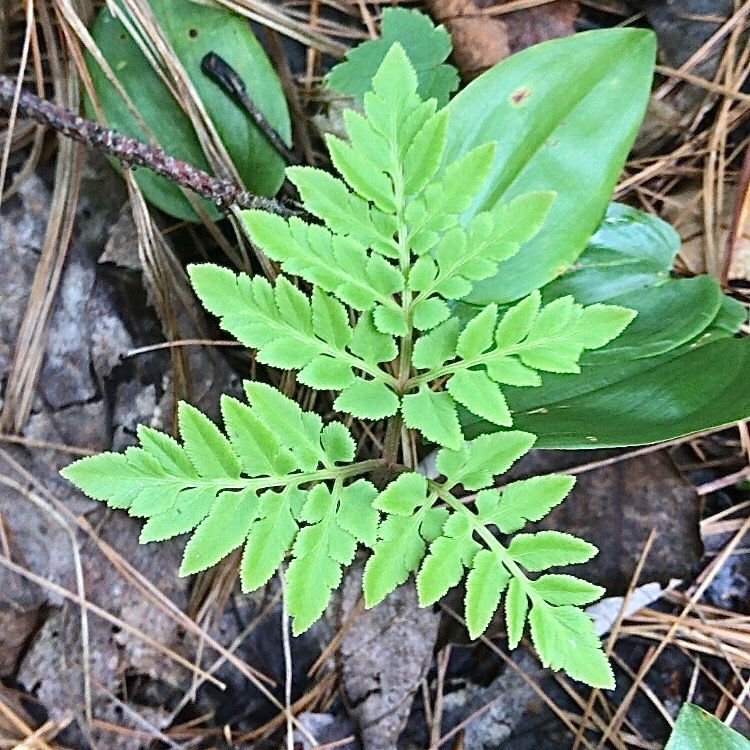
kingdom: Plantae
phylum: Tracheophyta
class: Polypodiopsida
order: Ophioglossales
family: Ophioglossaceae
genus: Sceptridium
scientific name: Sceptridium dissectum
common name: Cut-leaved grapefern
